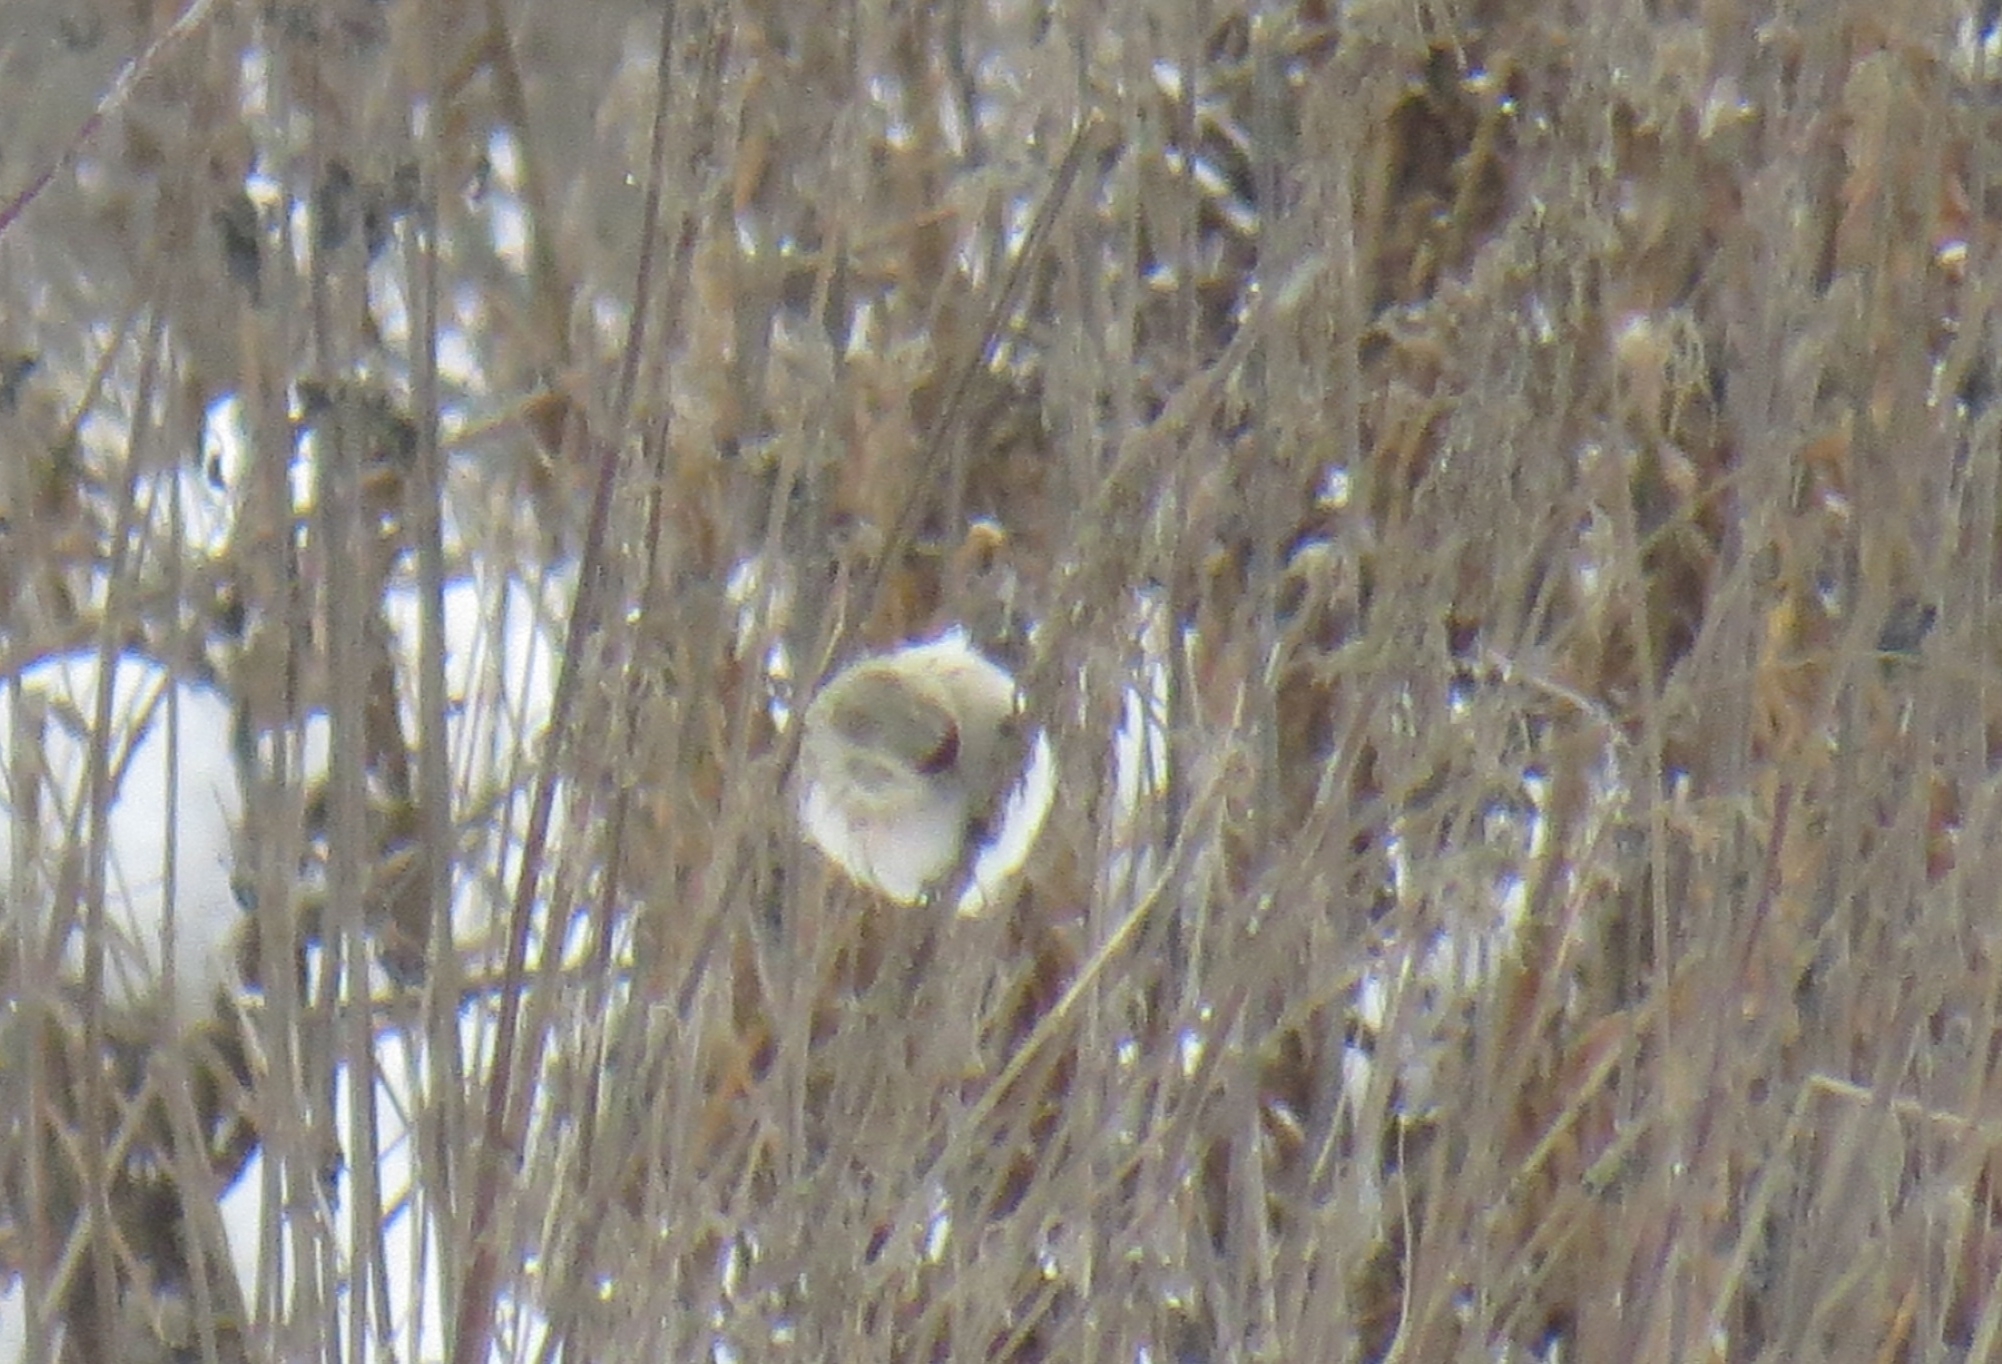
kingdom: Animalia
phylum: Chordata
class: Aves
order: Passeriformes
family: Fringillidae
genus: Acanthis
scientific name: Acanthis hornemanni
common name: Arctic redpoll
